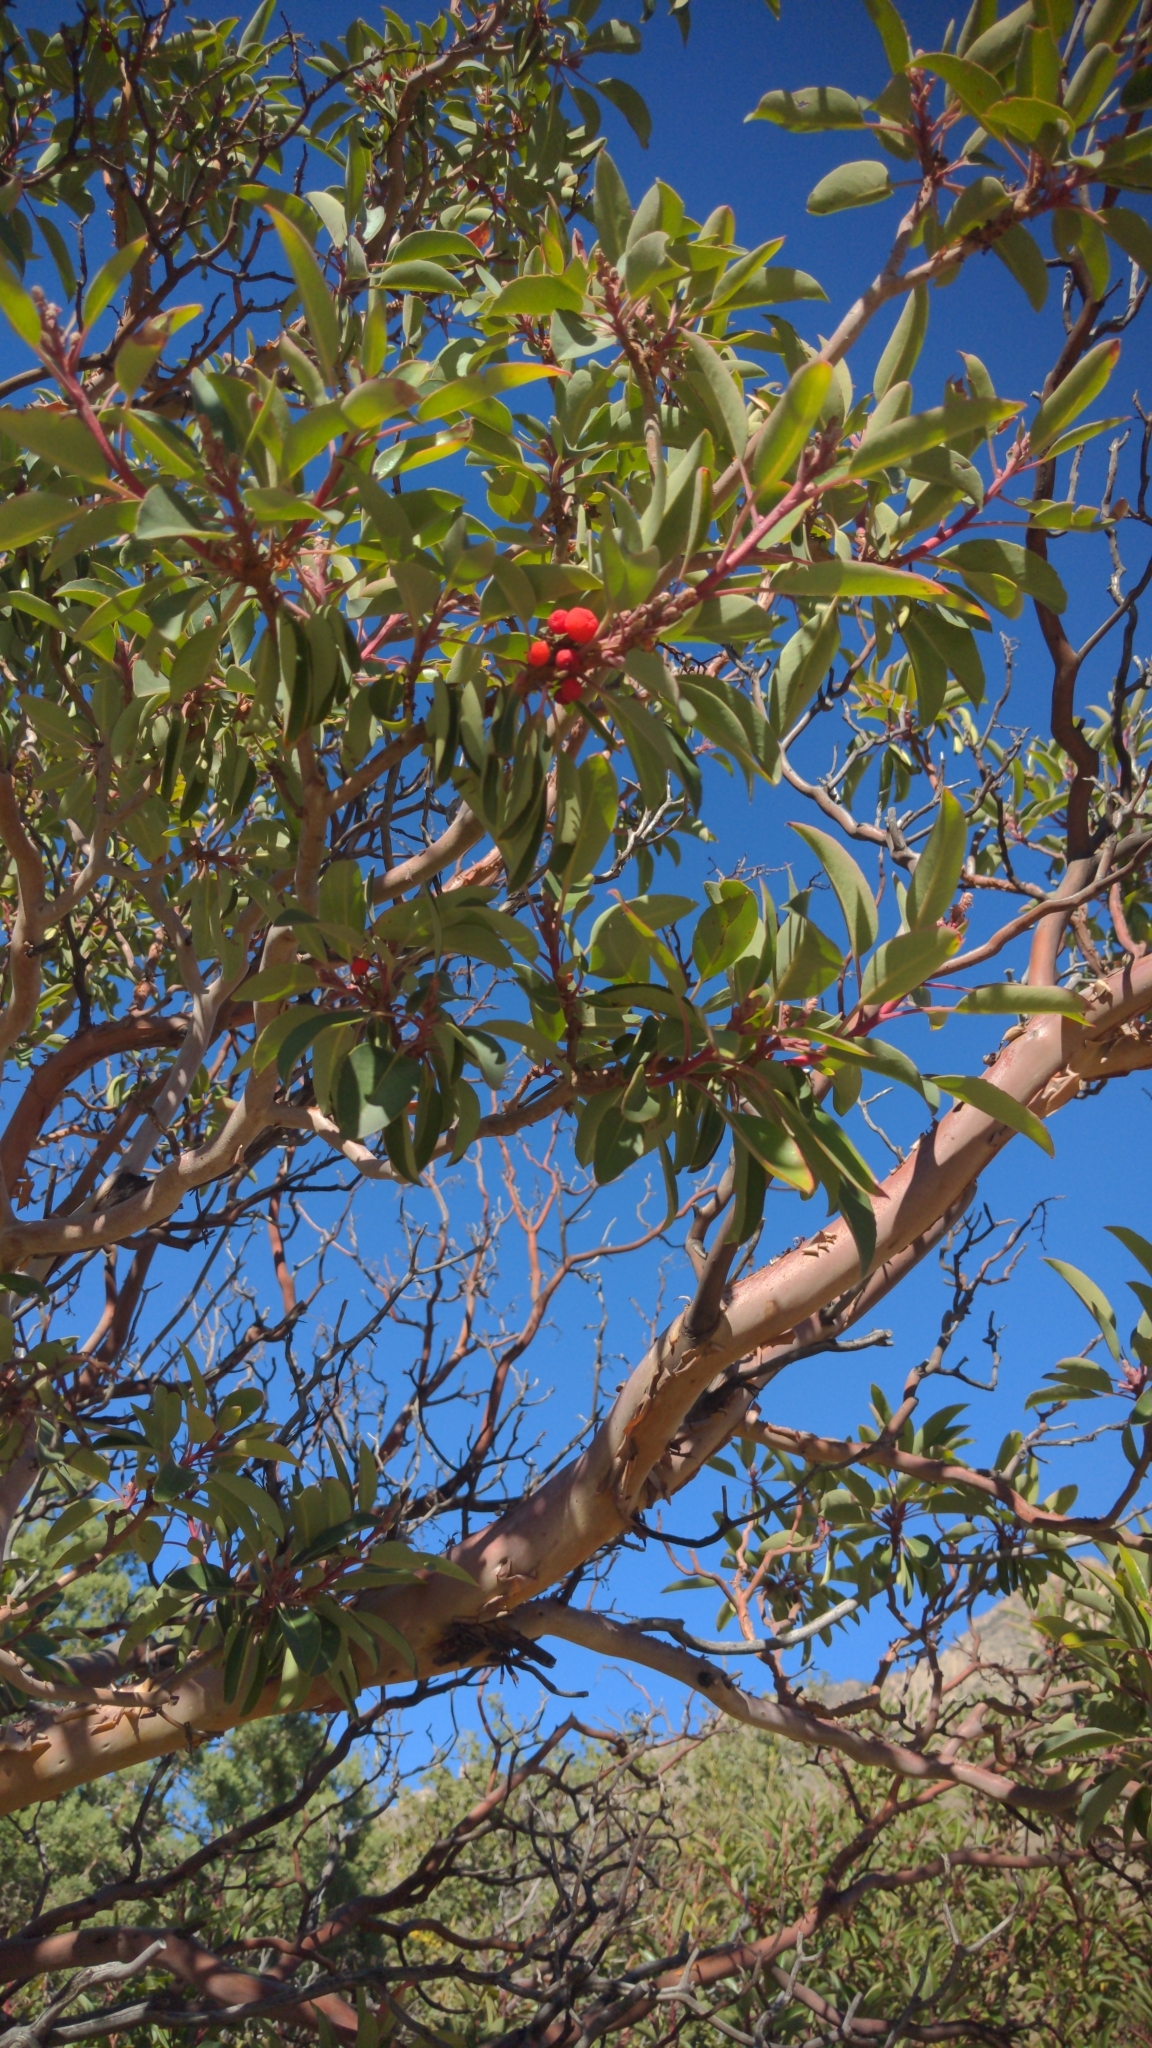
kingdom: Plantae
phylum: Tracheophyta
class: Magnoliopsida
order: Ericales
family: Ericaceae
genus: Arbutus
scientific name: Arbutus xalapensis
